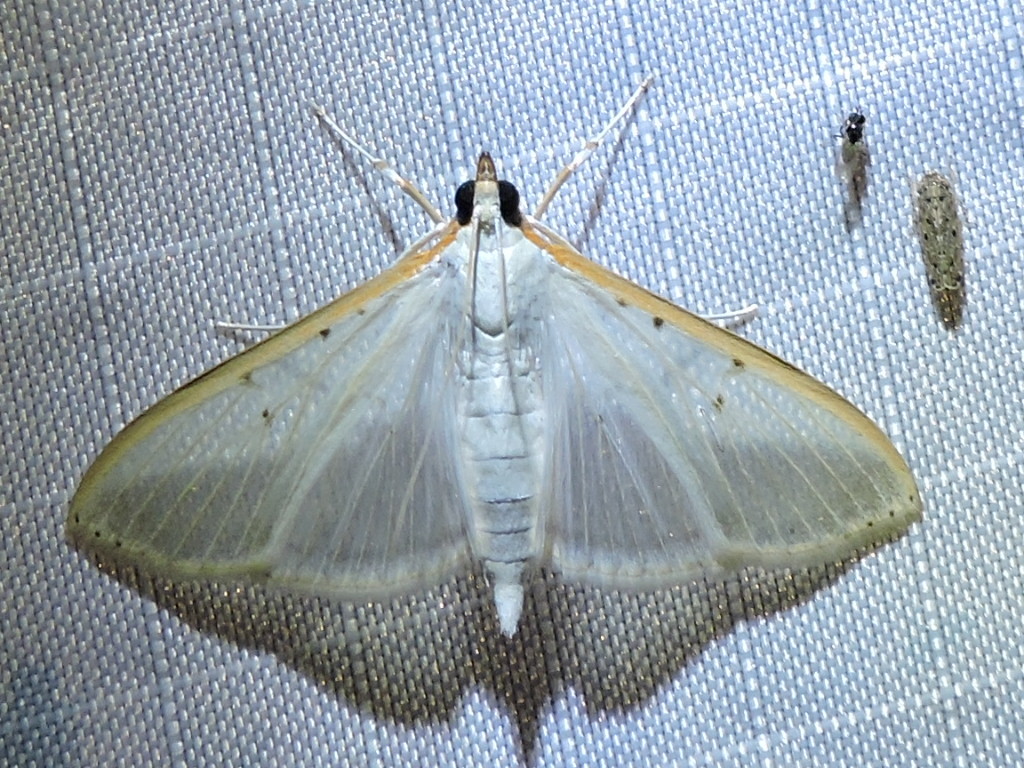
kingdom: Animalia
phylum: Arthropoda
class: Insecta
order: Lepidoptera
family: Crambidae
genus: Palpita
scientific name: Palpita quadristigmalis
